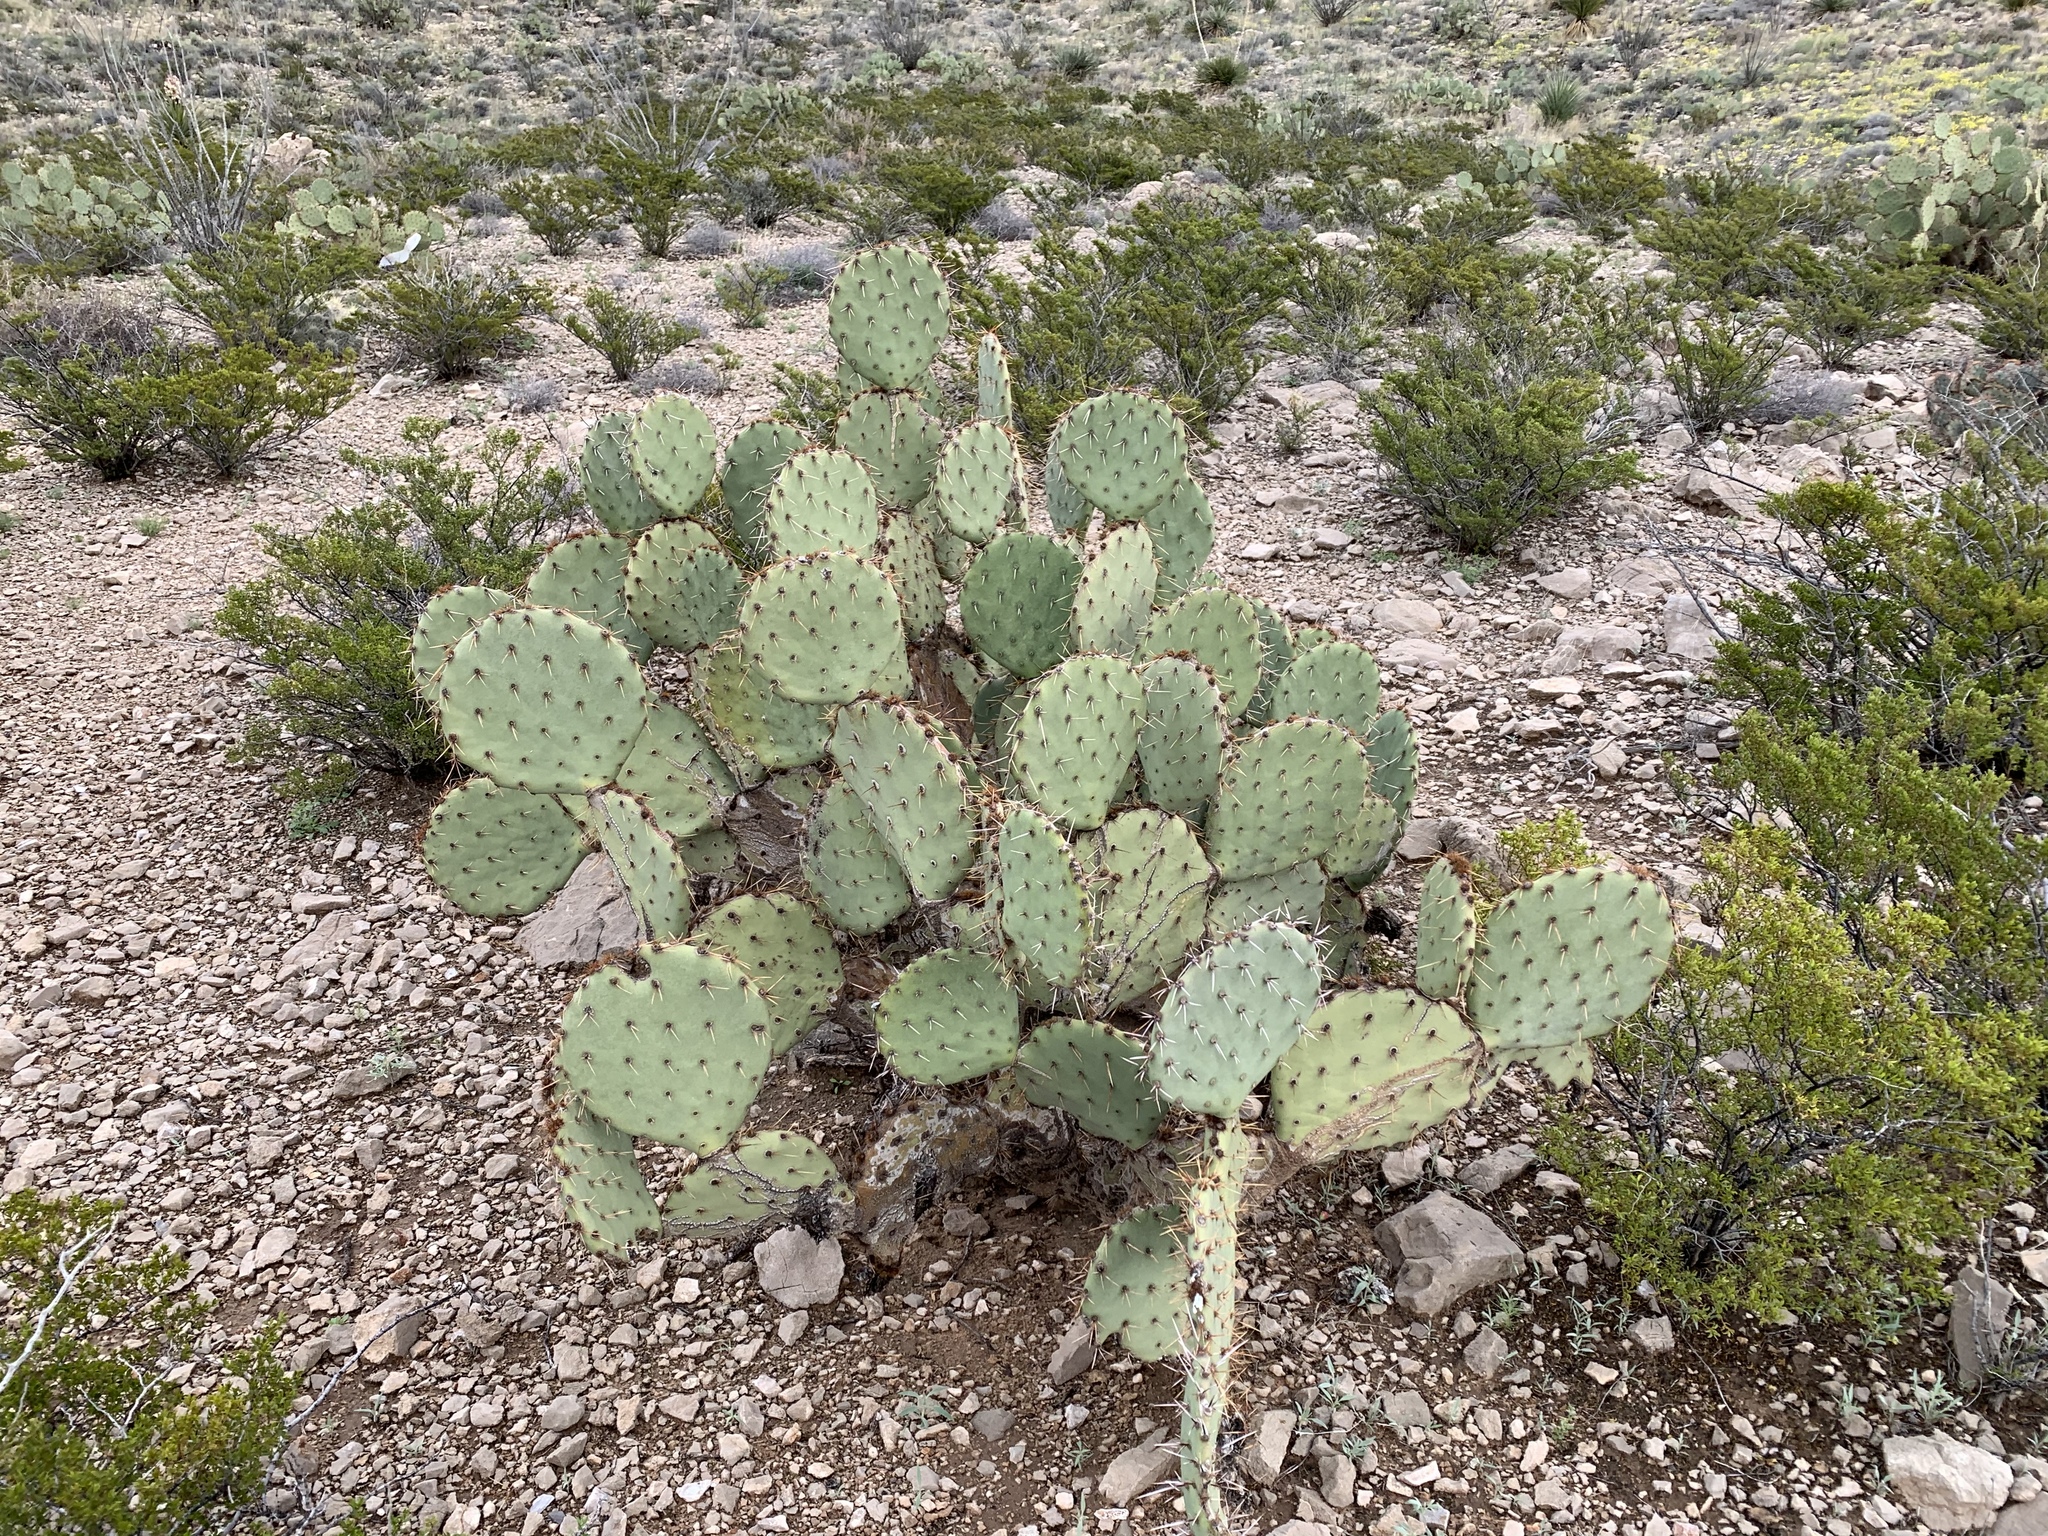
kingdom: Plantae
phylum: Tracheophyta
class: Magnoliopsida
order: Caryophyllales
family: Cactaceae
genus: Opuntia
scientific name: Opuntia engelmannii
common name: Cactus-apple
